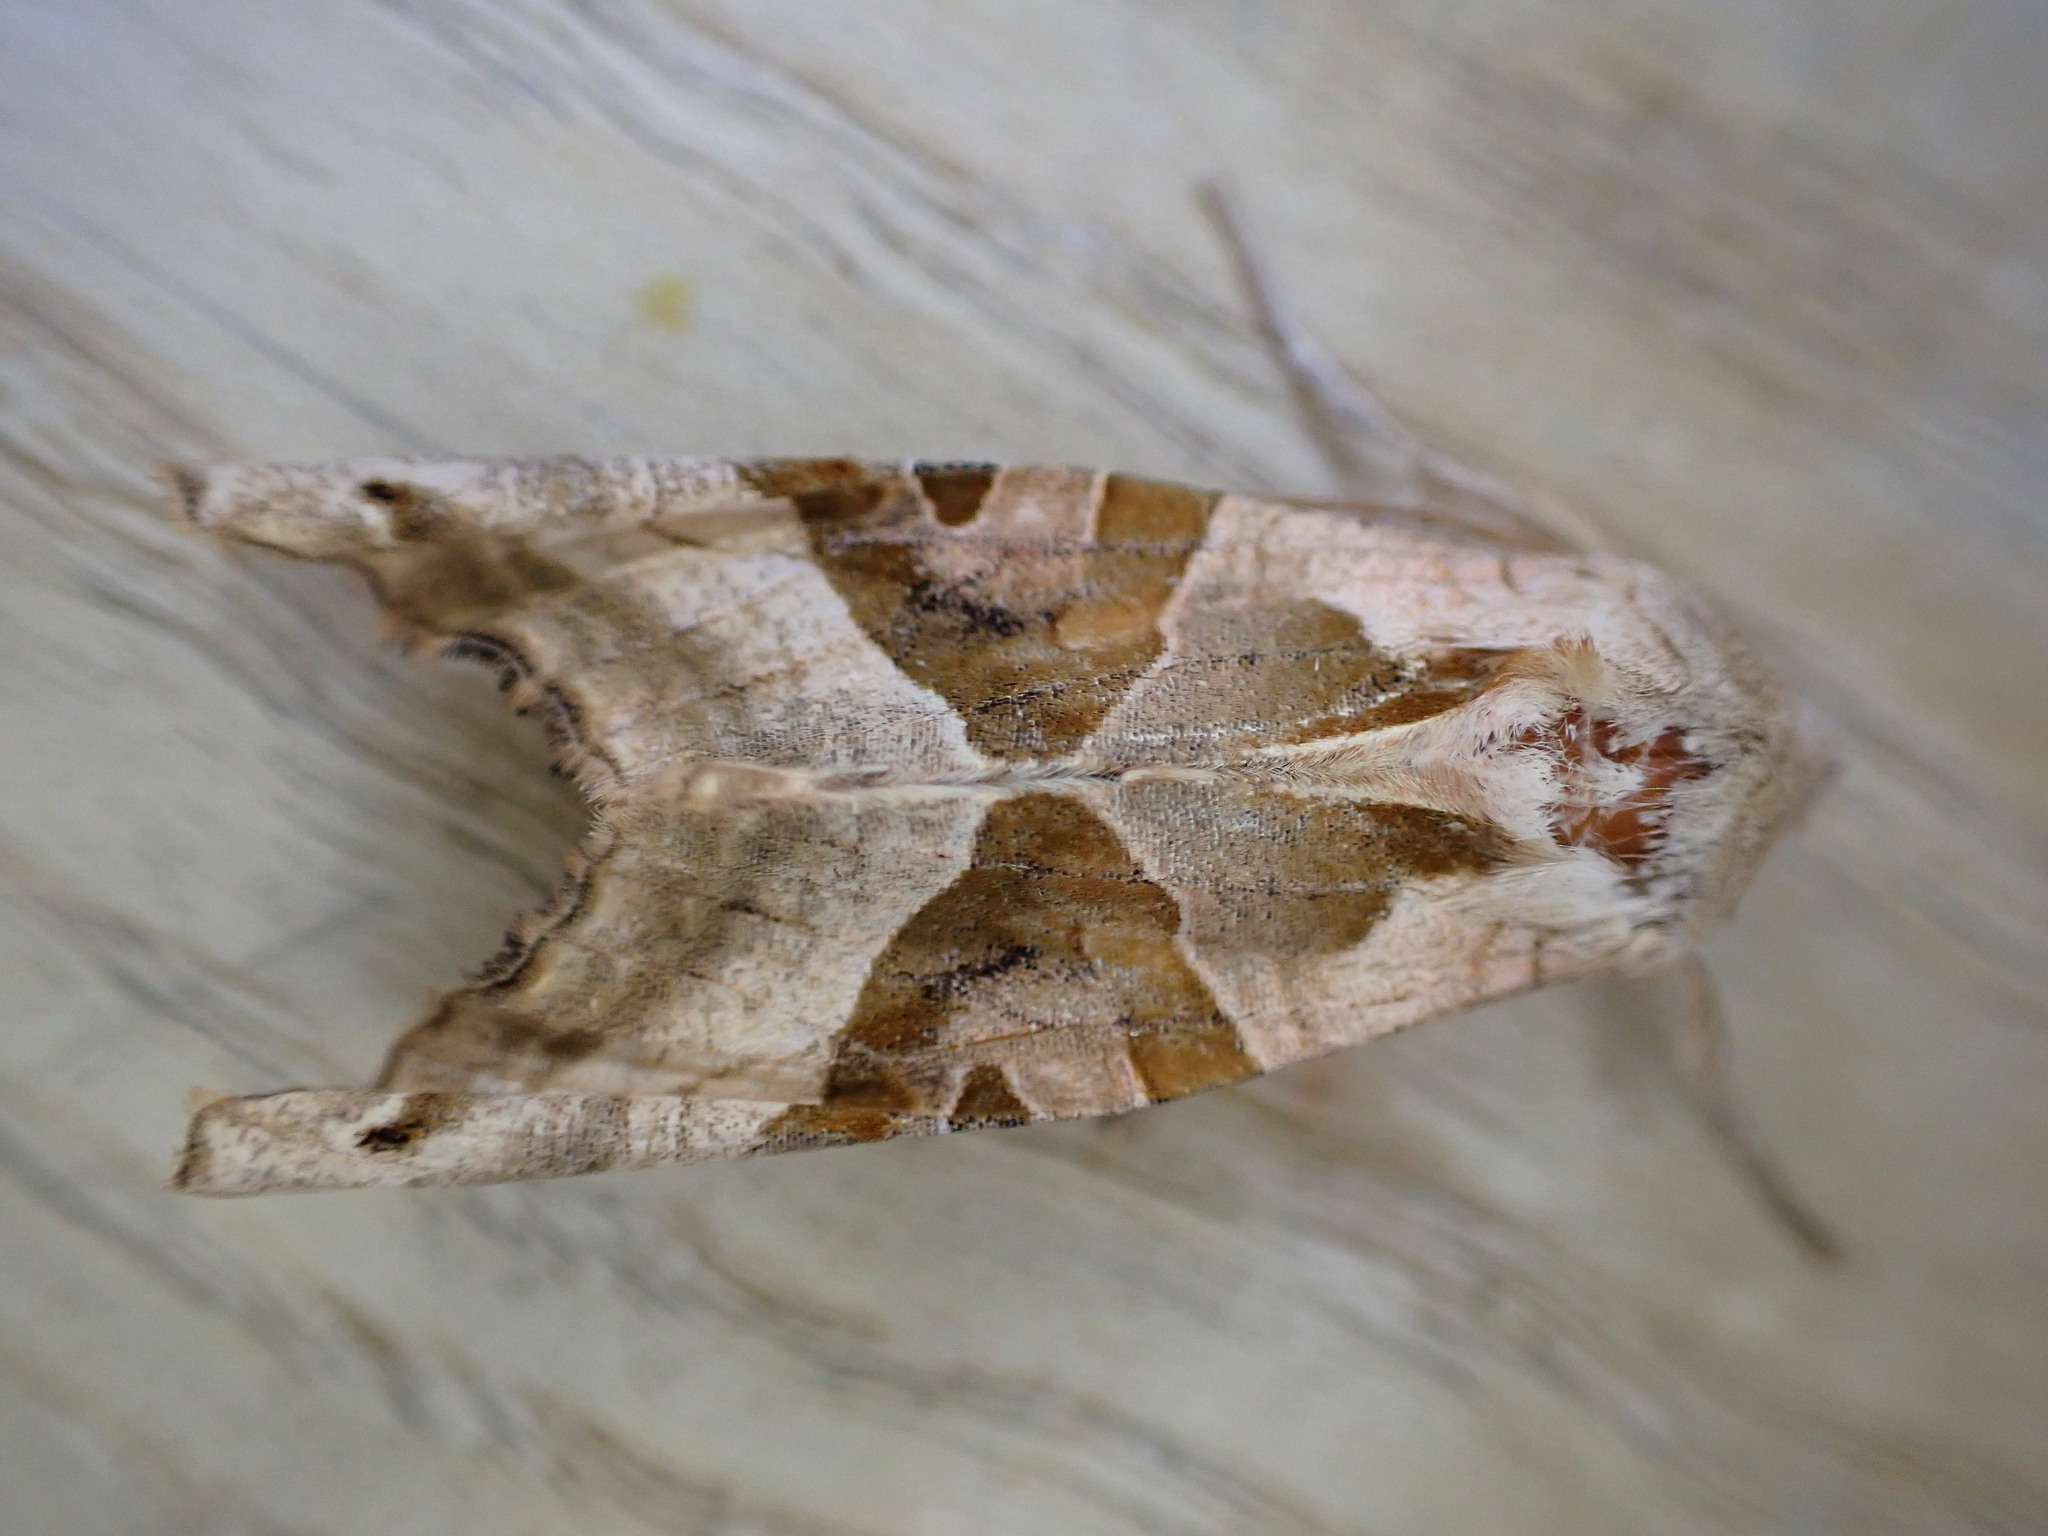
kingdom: Animalia
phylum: Arthropoda
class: Insecta
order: Lepidoptera
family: Noctuidae
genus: Phlogophora
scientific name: Phlogophora meticulosa
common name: Angle shades
